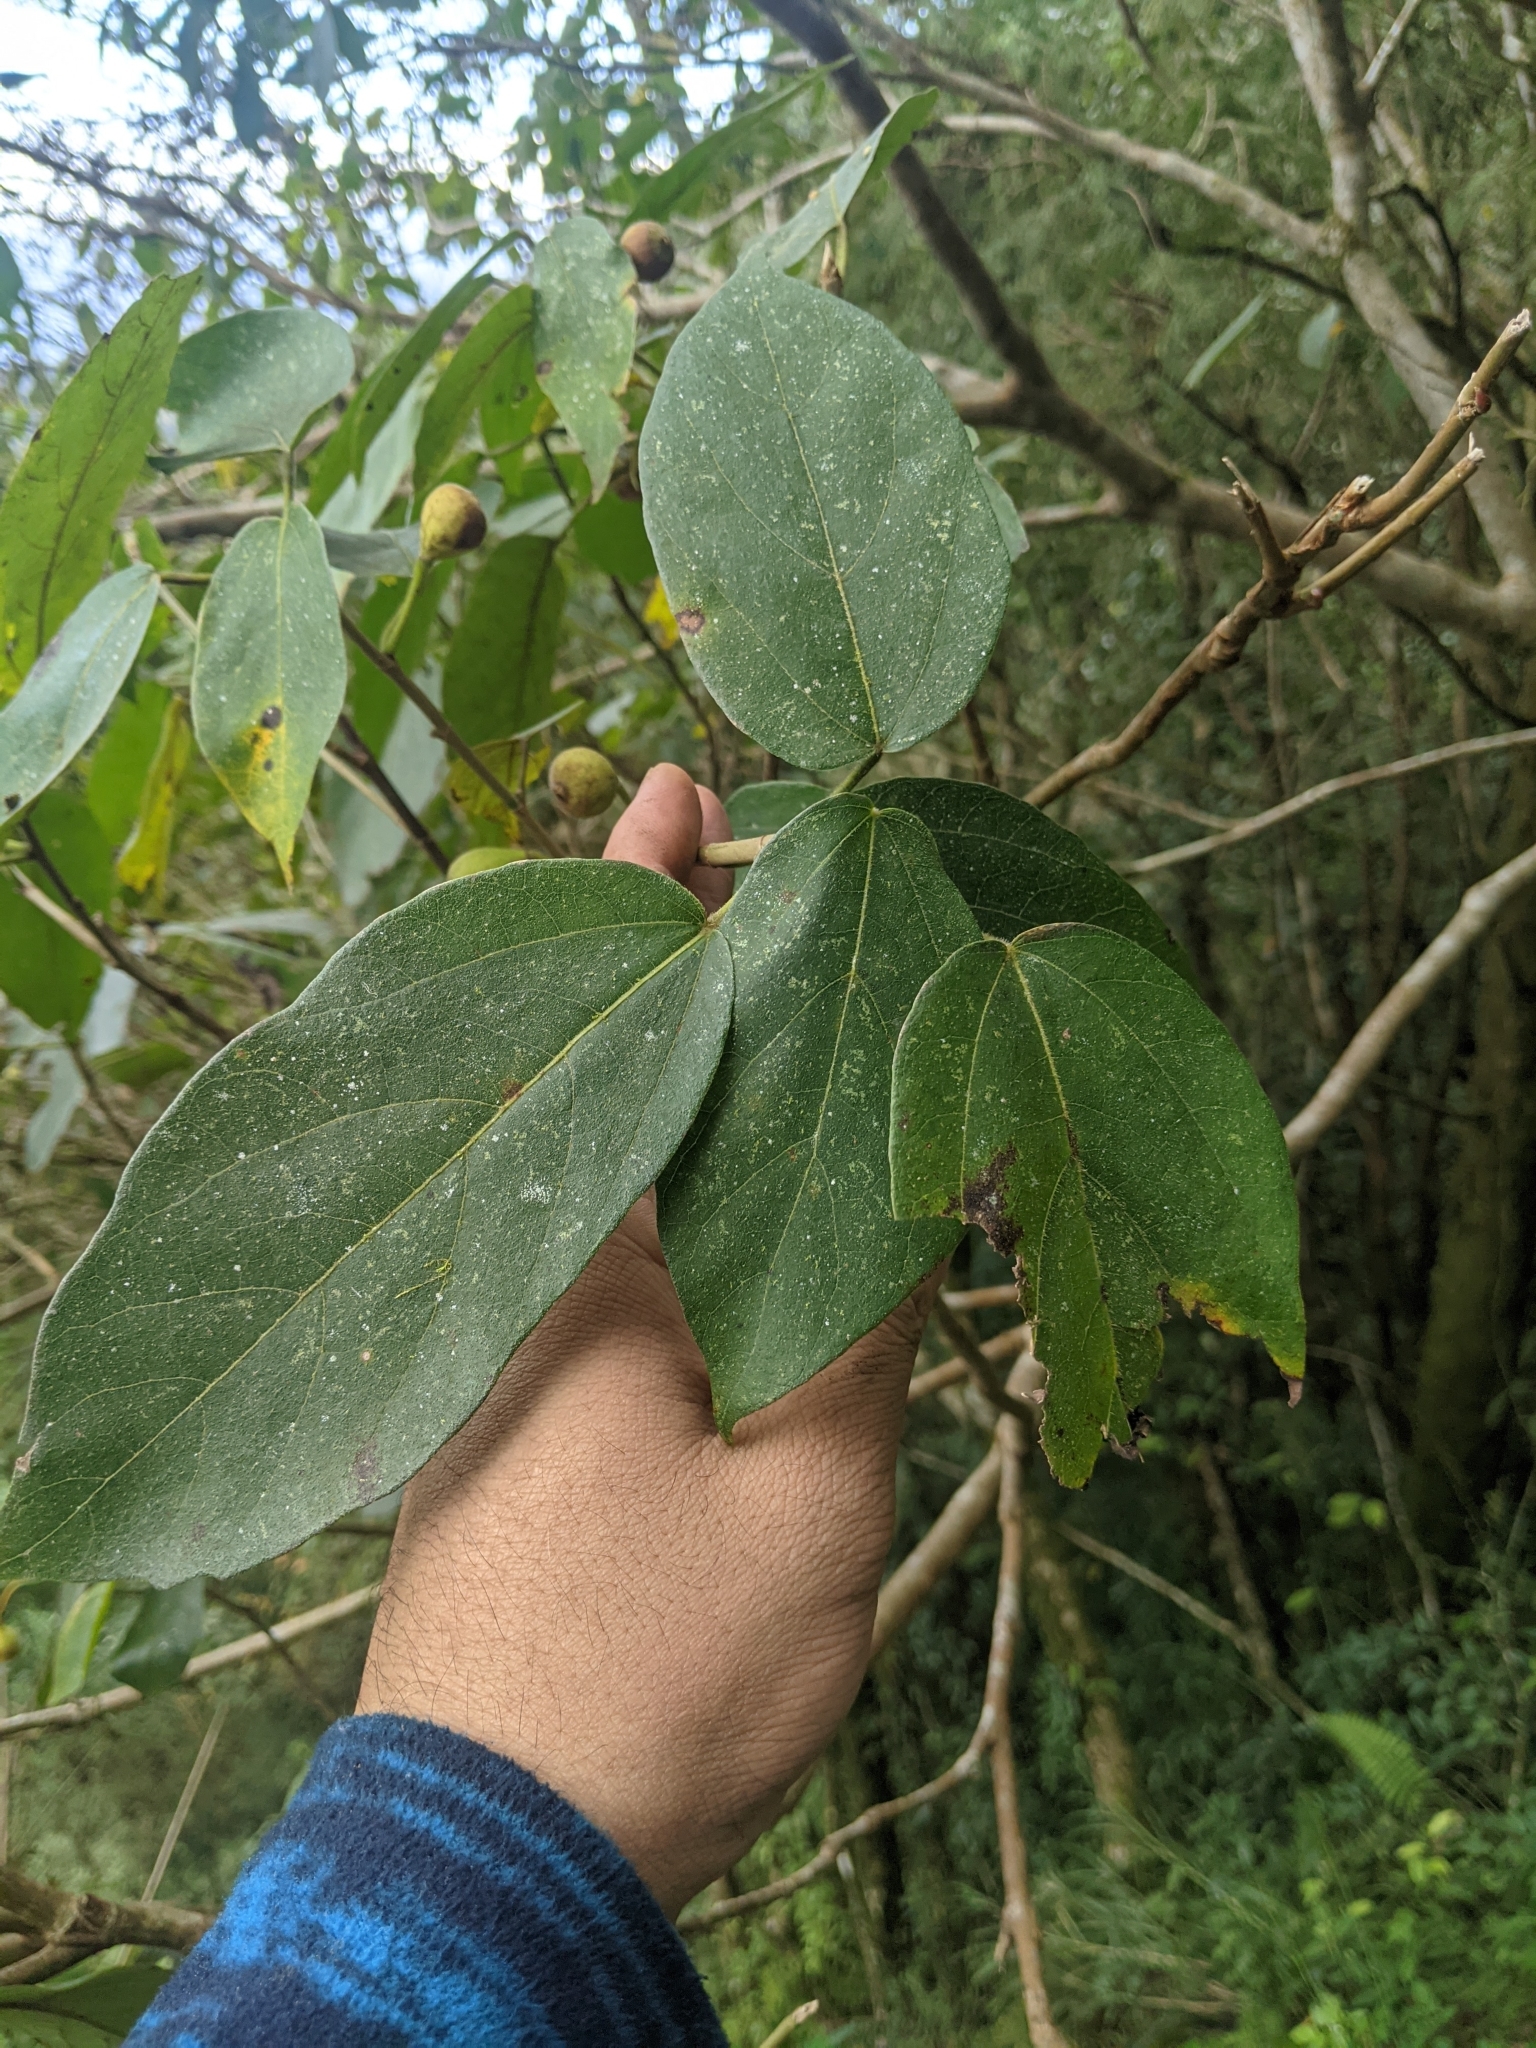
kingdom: Plantae
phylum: Tracheophyta
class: Magnoliopsida
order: Rosales
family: Moraceae
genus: Ficus
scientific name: Ficus erecta
